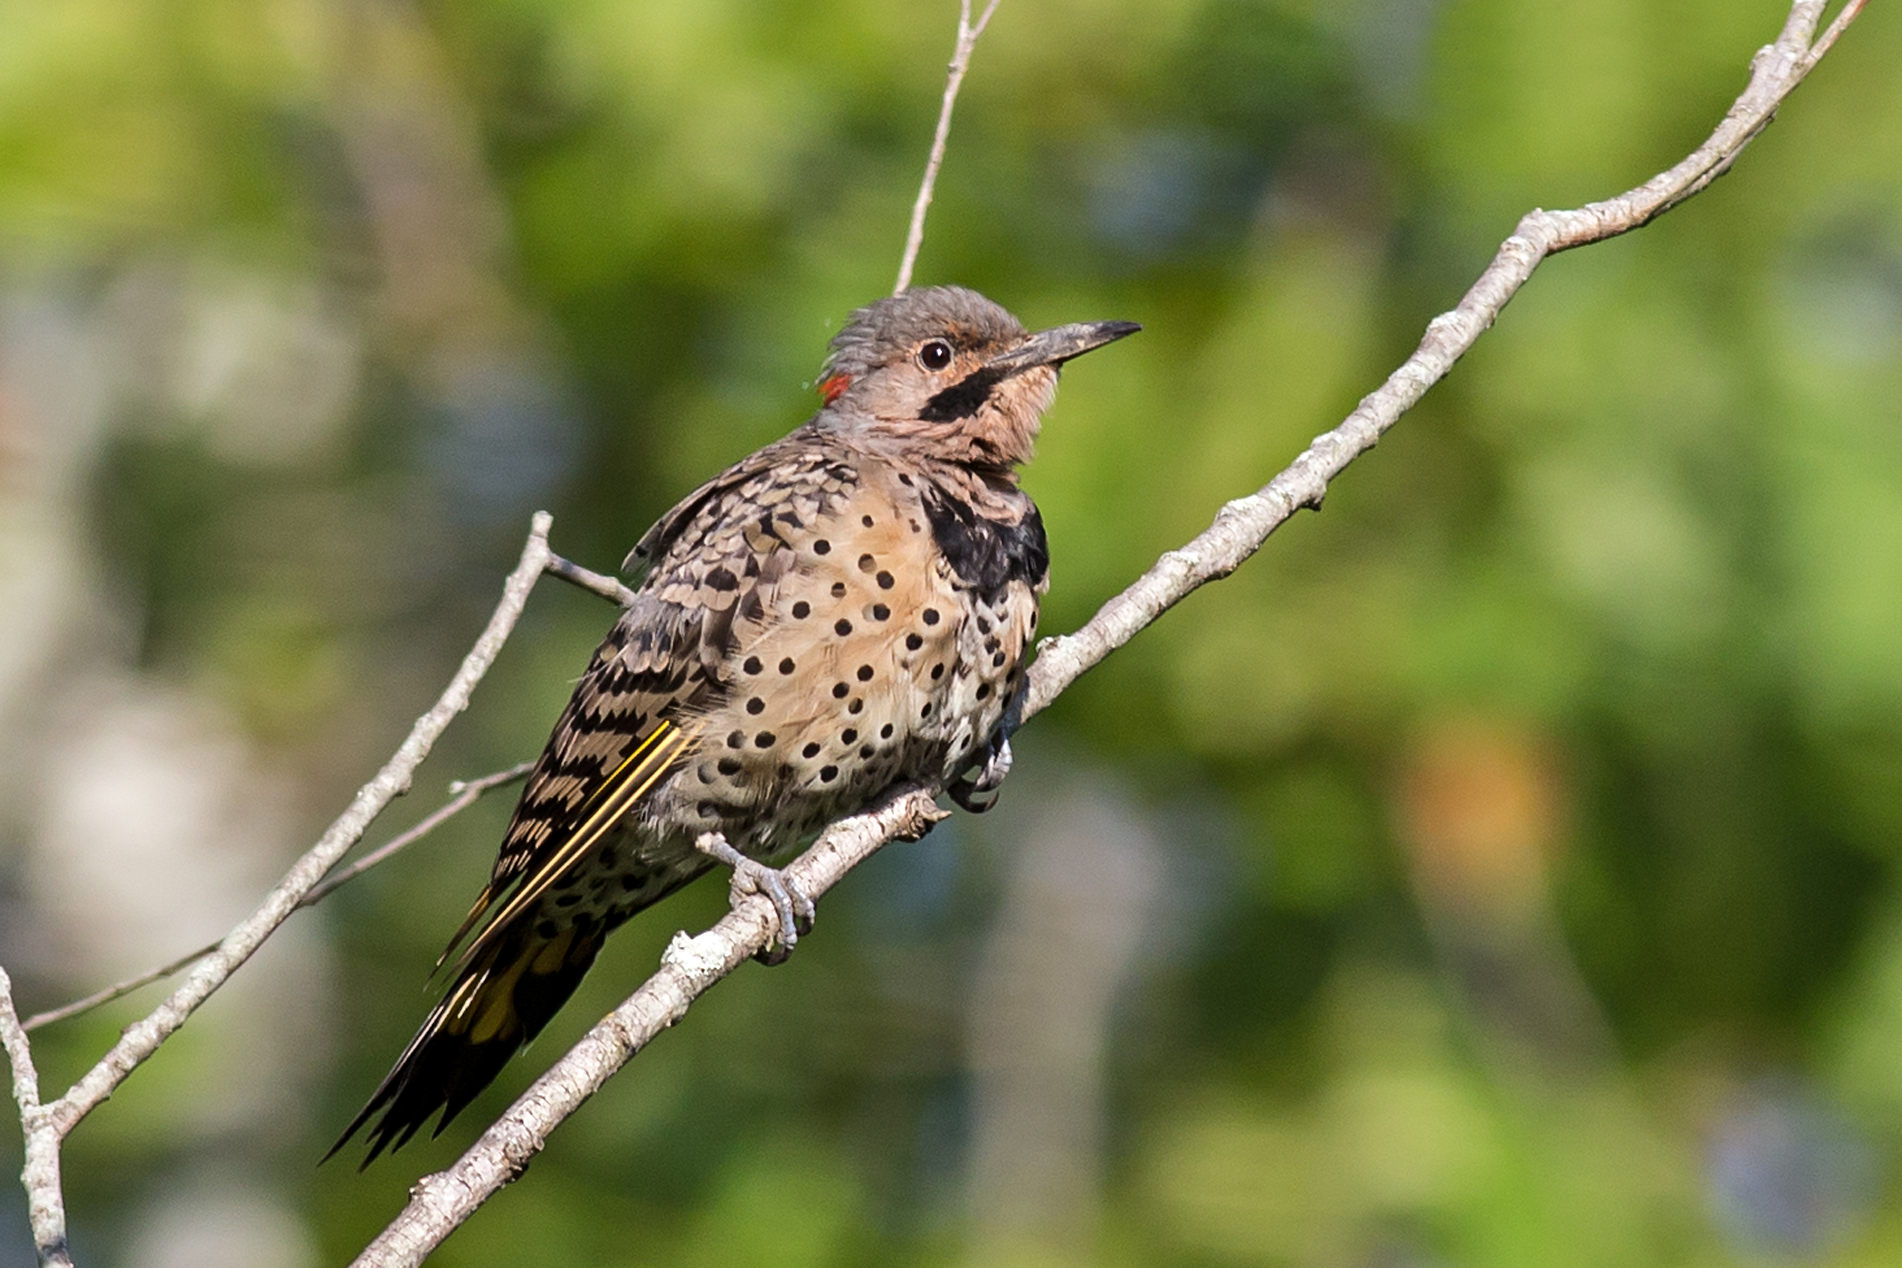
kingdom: Animalia
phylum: Chordata
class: Aves
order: Piciformes
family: Picidae
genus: Colaptes
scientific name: Colaptes auratus
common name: Northern flicker
